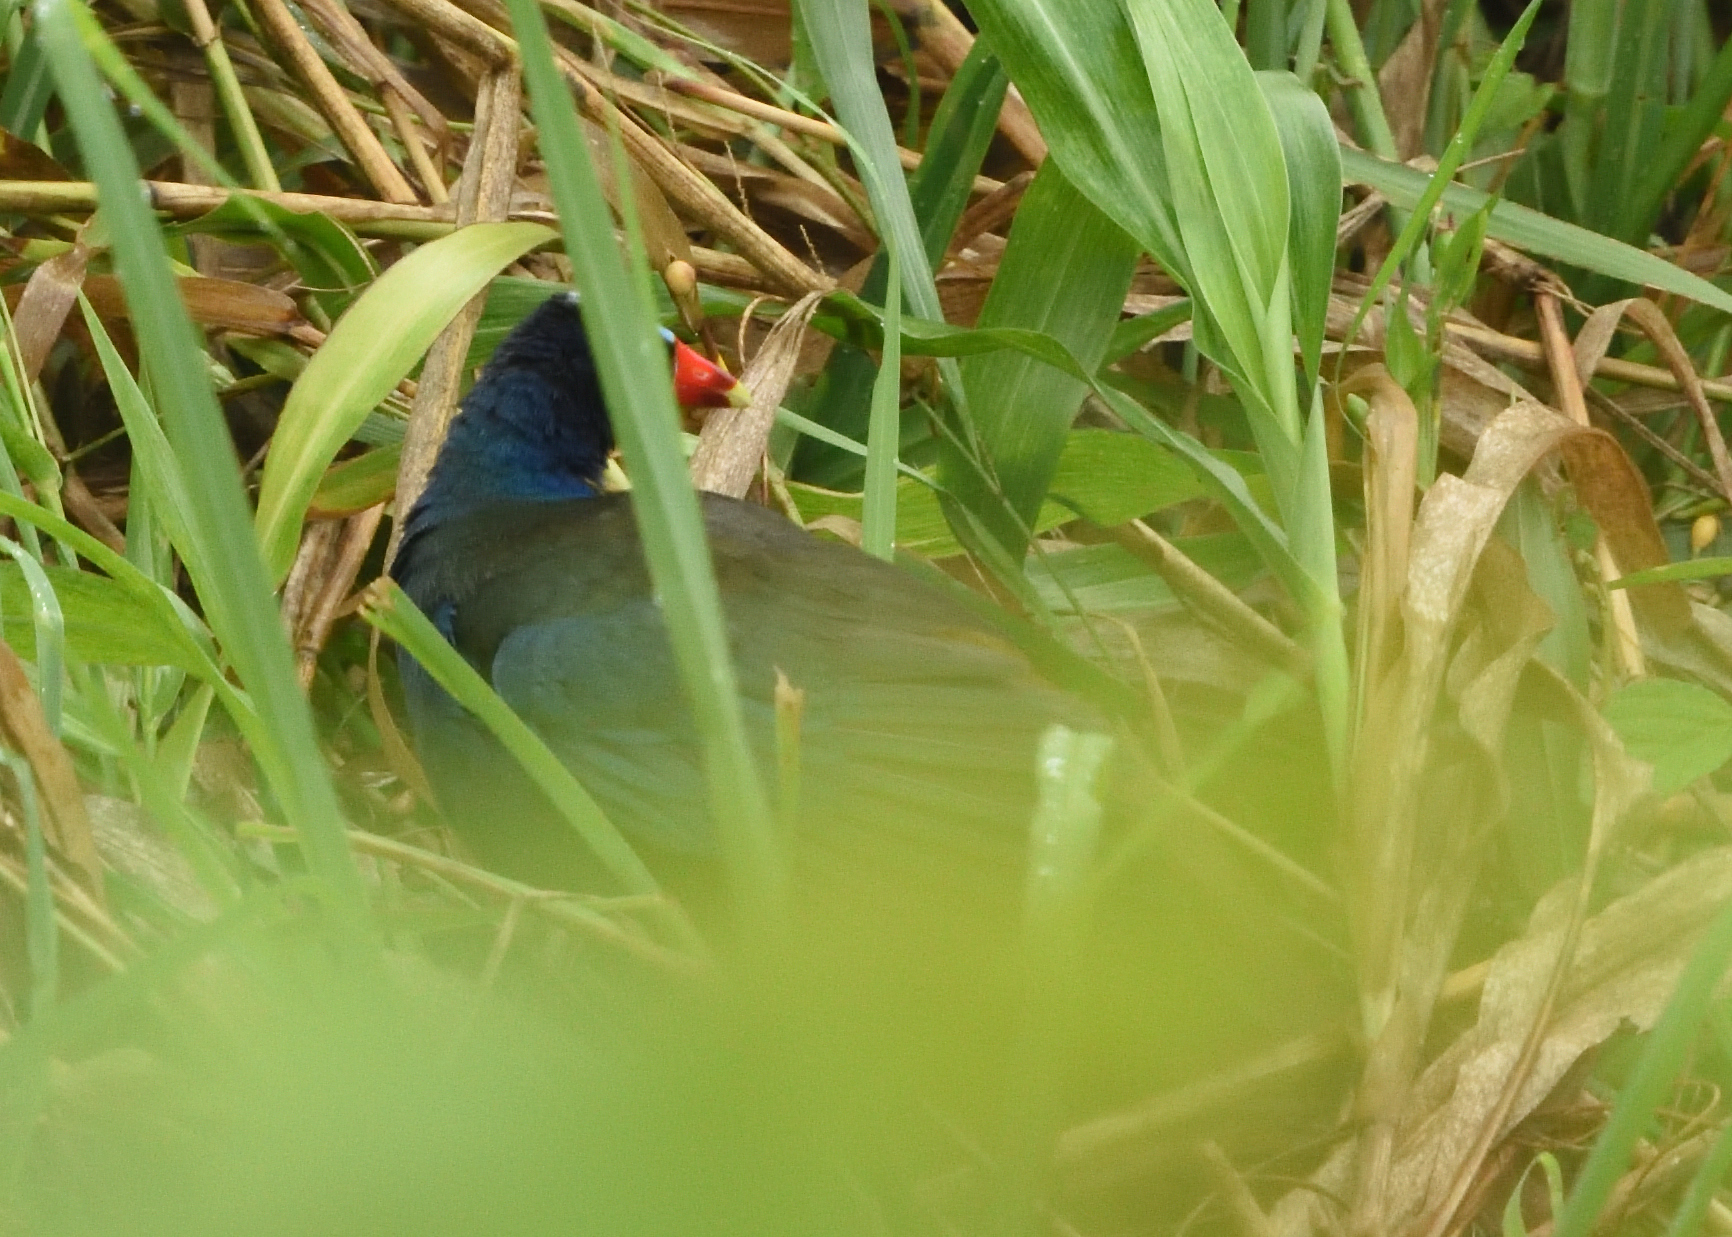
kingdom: Animalia
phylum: Chordata
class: Aves
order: Gruiformes
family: Rallidae
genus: Porphyrio
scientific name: Porphyrio martinica
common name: Purple gallinule
